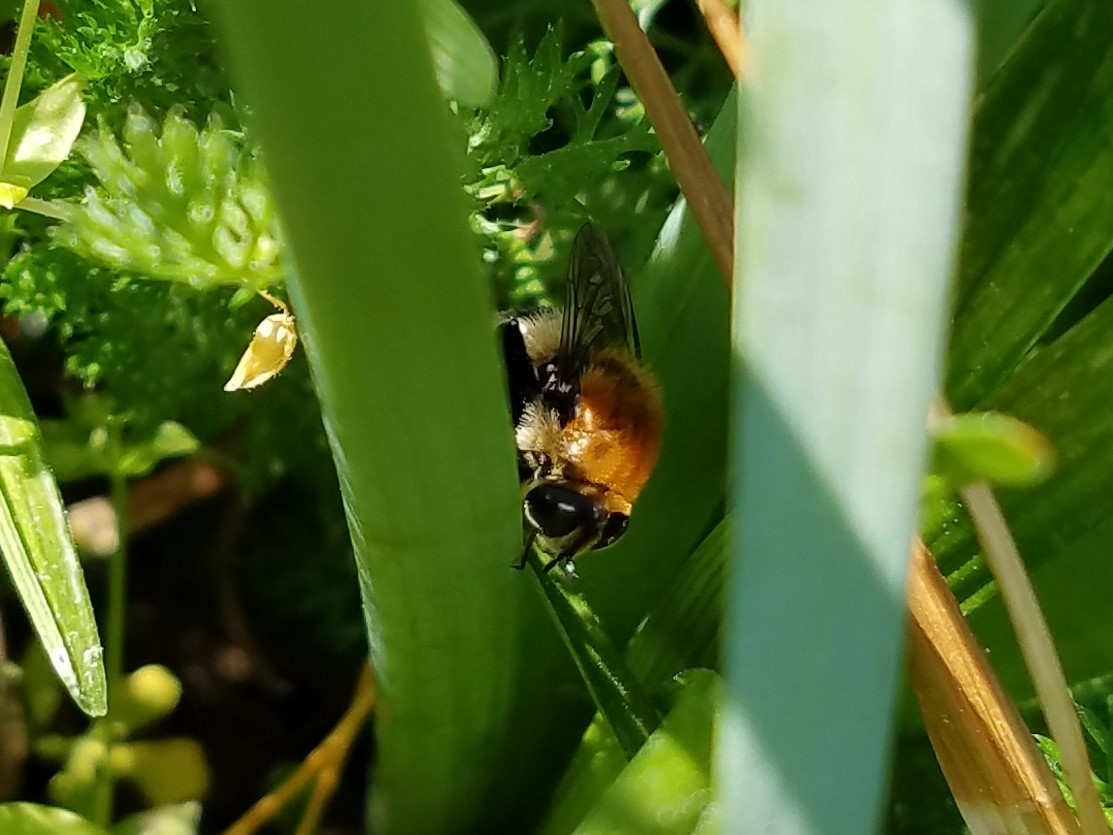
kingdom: Animalia
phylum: Arthropoda
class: Insecta
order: Diptera
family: Syrphidae
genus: Merodon
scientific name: Merodon equestris
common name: Greater bulb-fly
